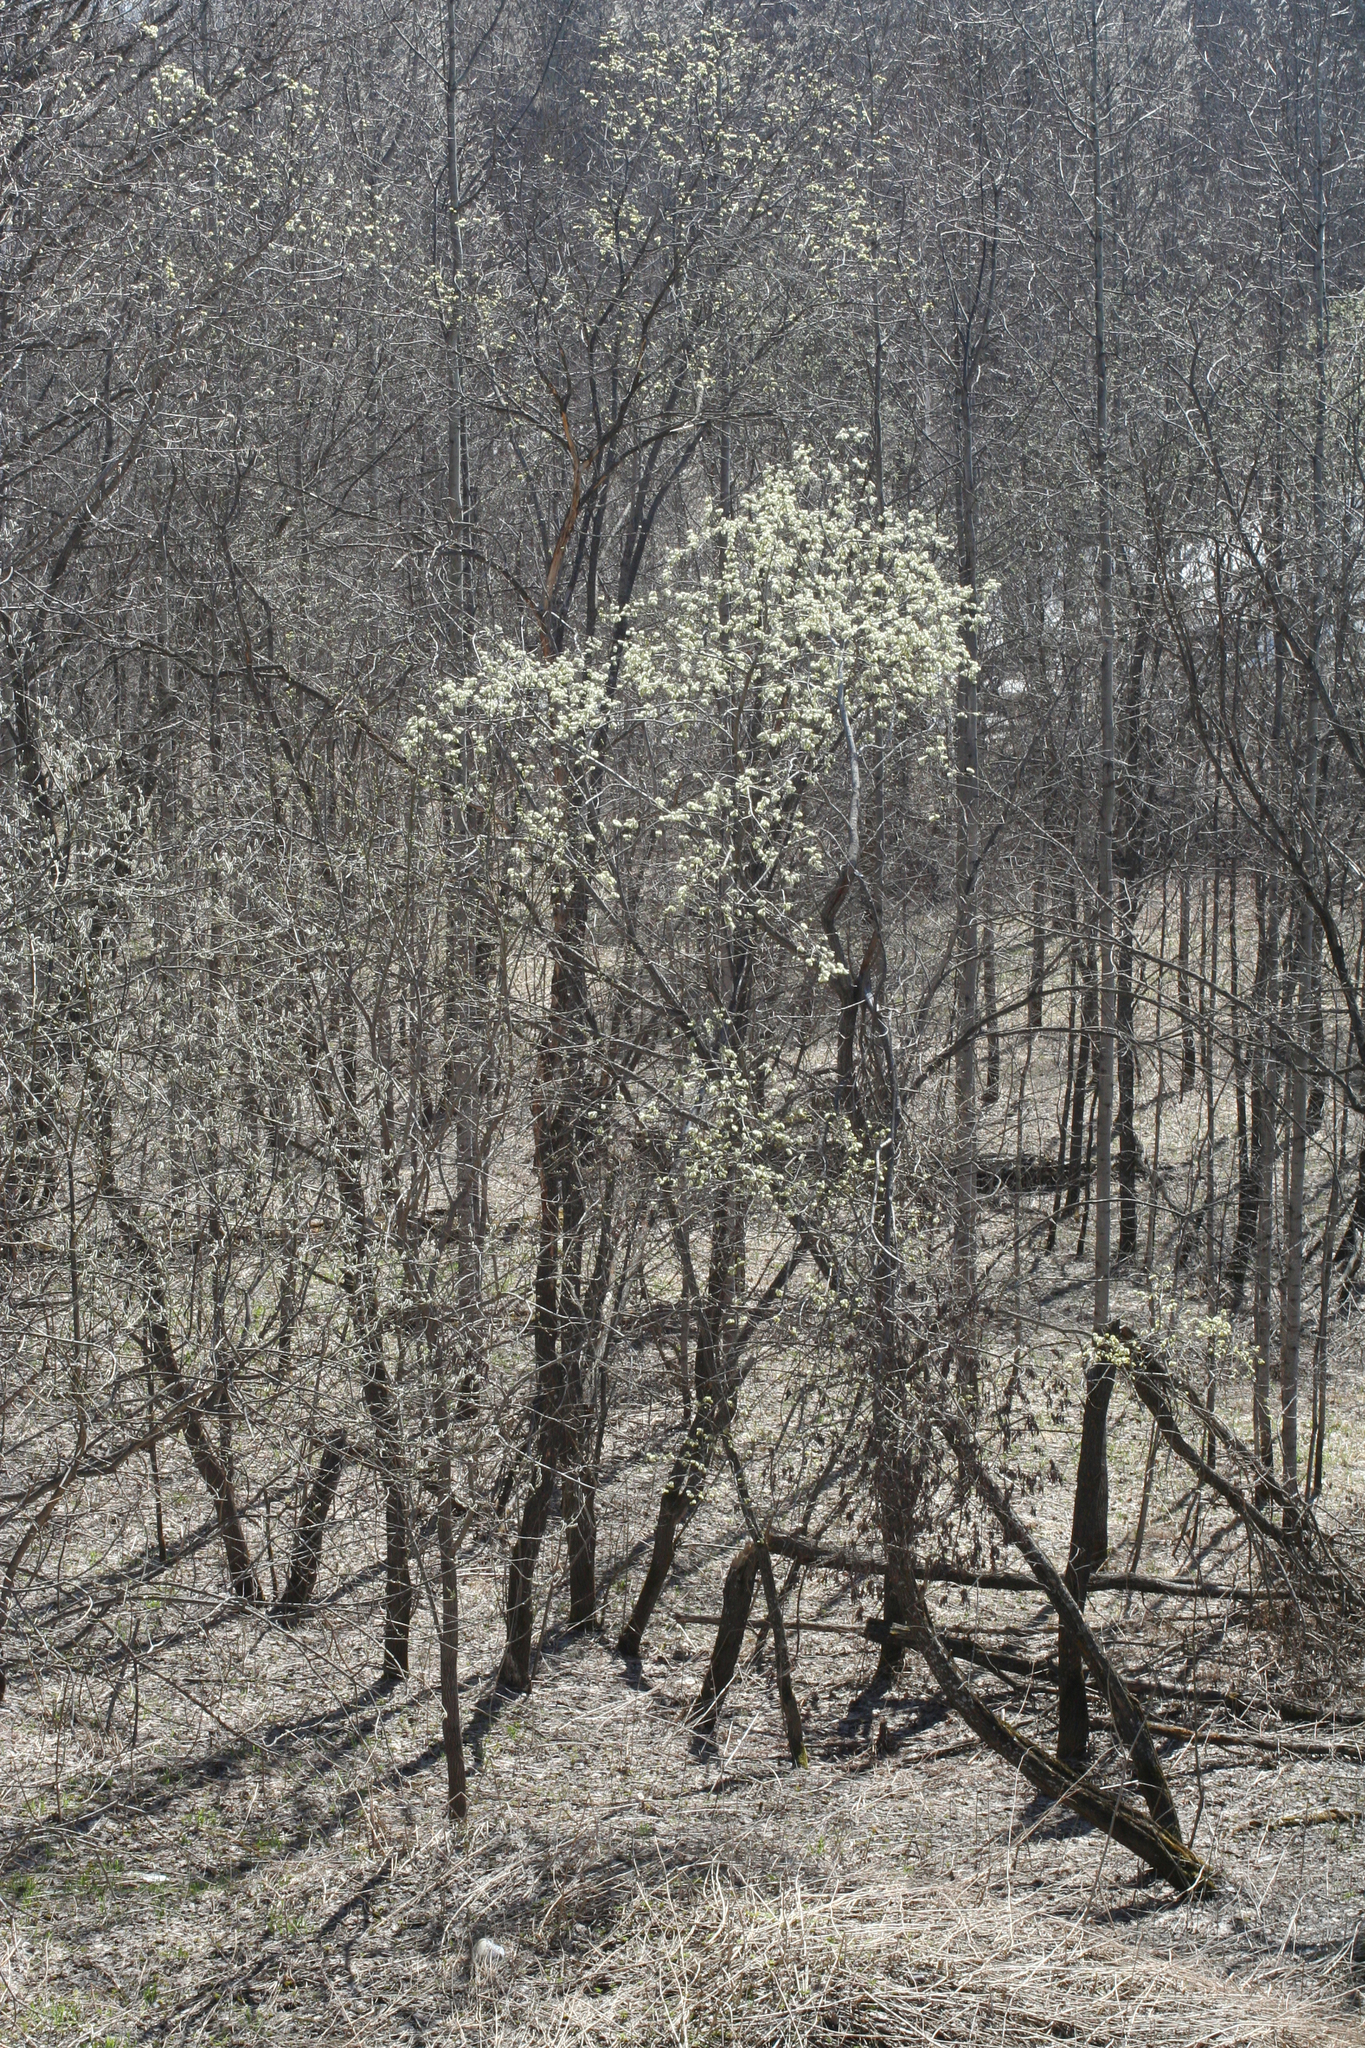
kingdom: Plantae
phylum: Tracheophyta
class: Magnoliopsida
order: Malpighiales
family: Salicaceae
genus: Salix
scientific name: Salix caprea
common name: Goat willow
